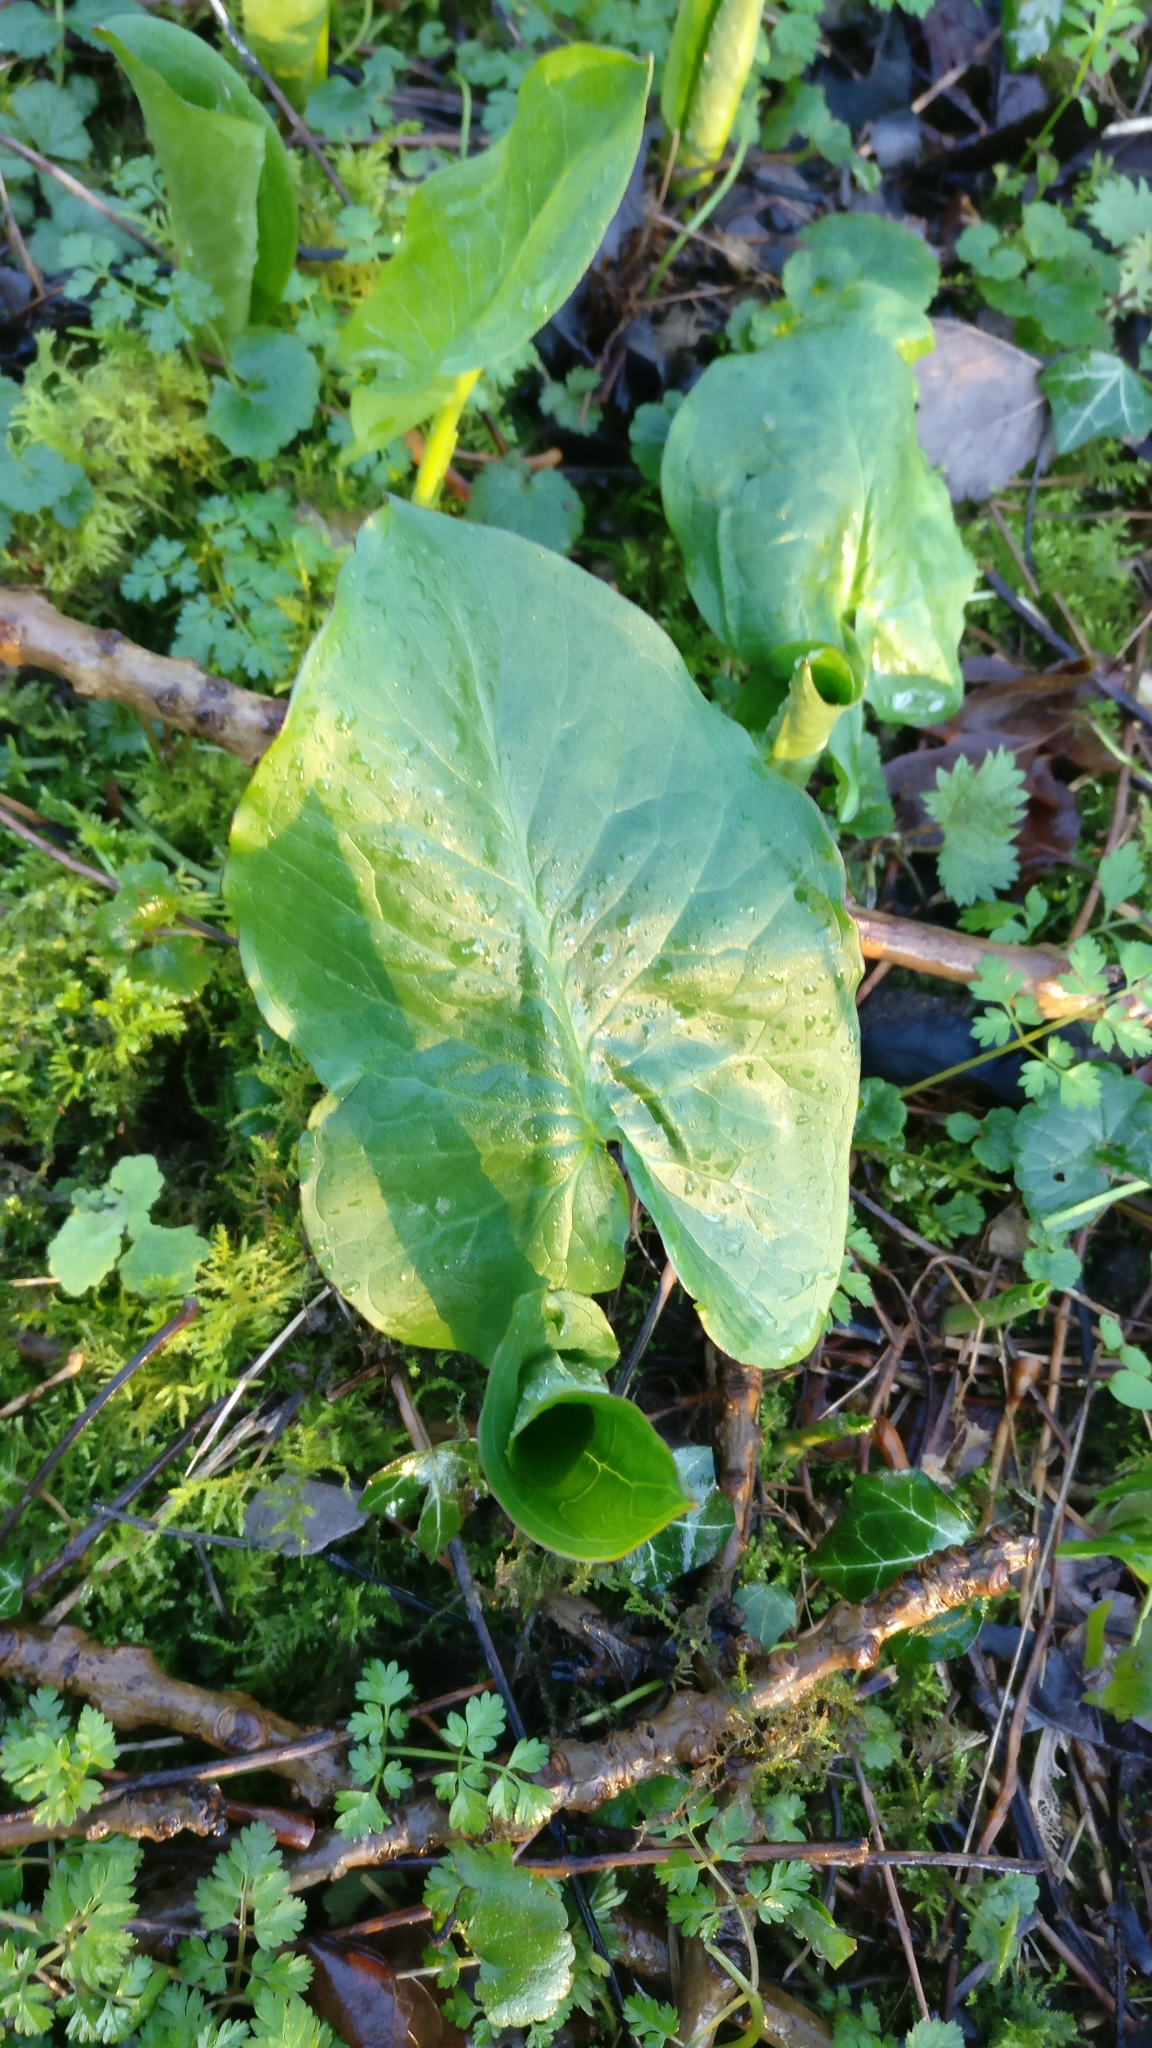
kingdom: Plantae
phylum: Tracheophyta
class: Liliopsida
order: Alismatales
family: Araceae
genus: Arum
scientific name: Arum maculatum
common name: Lords-and-ladies
